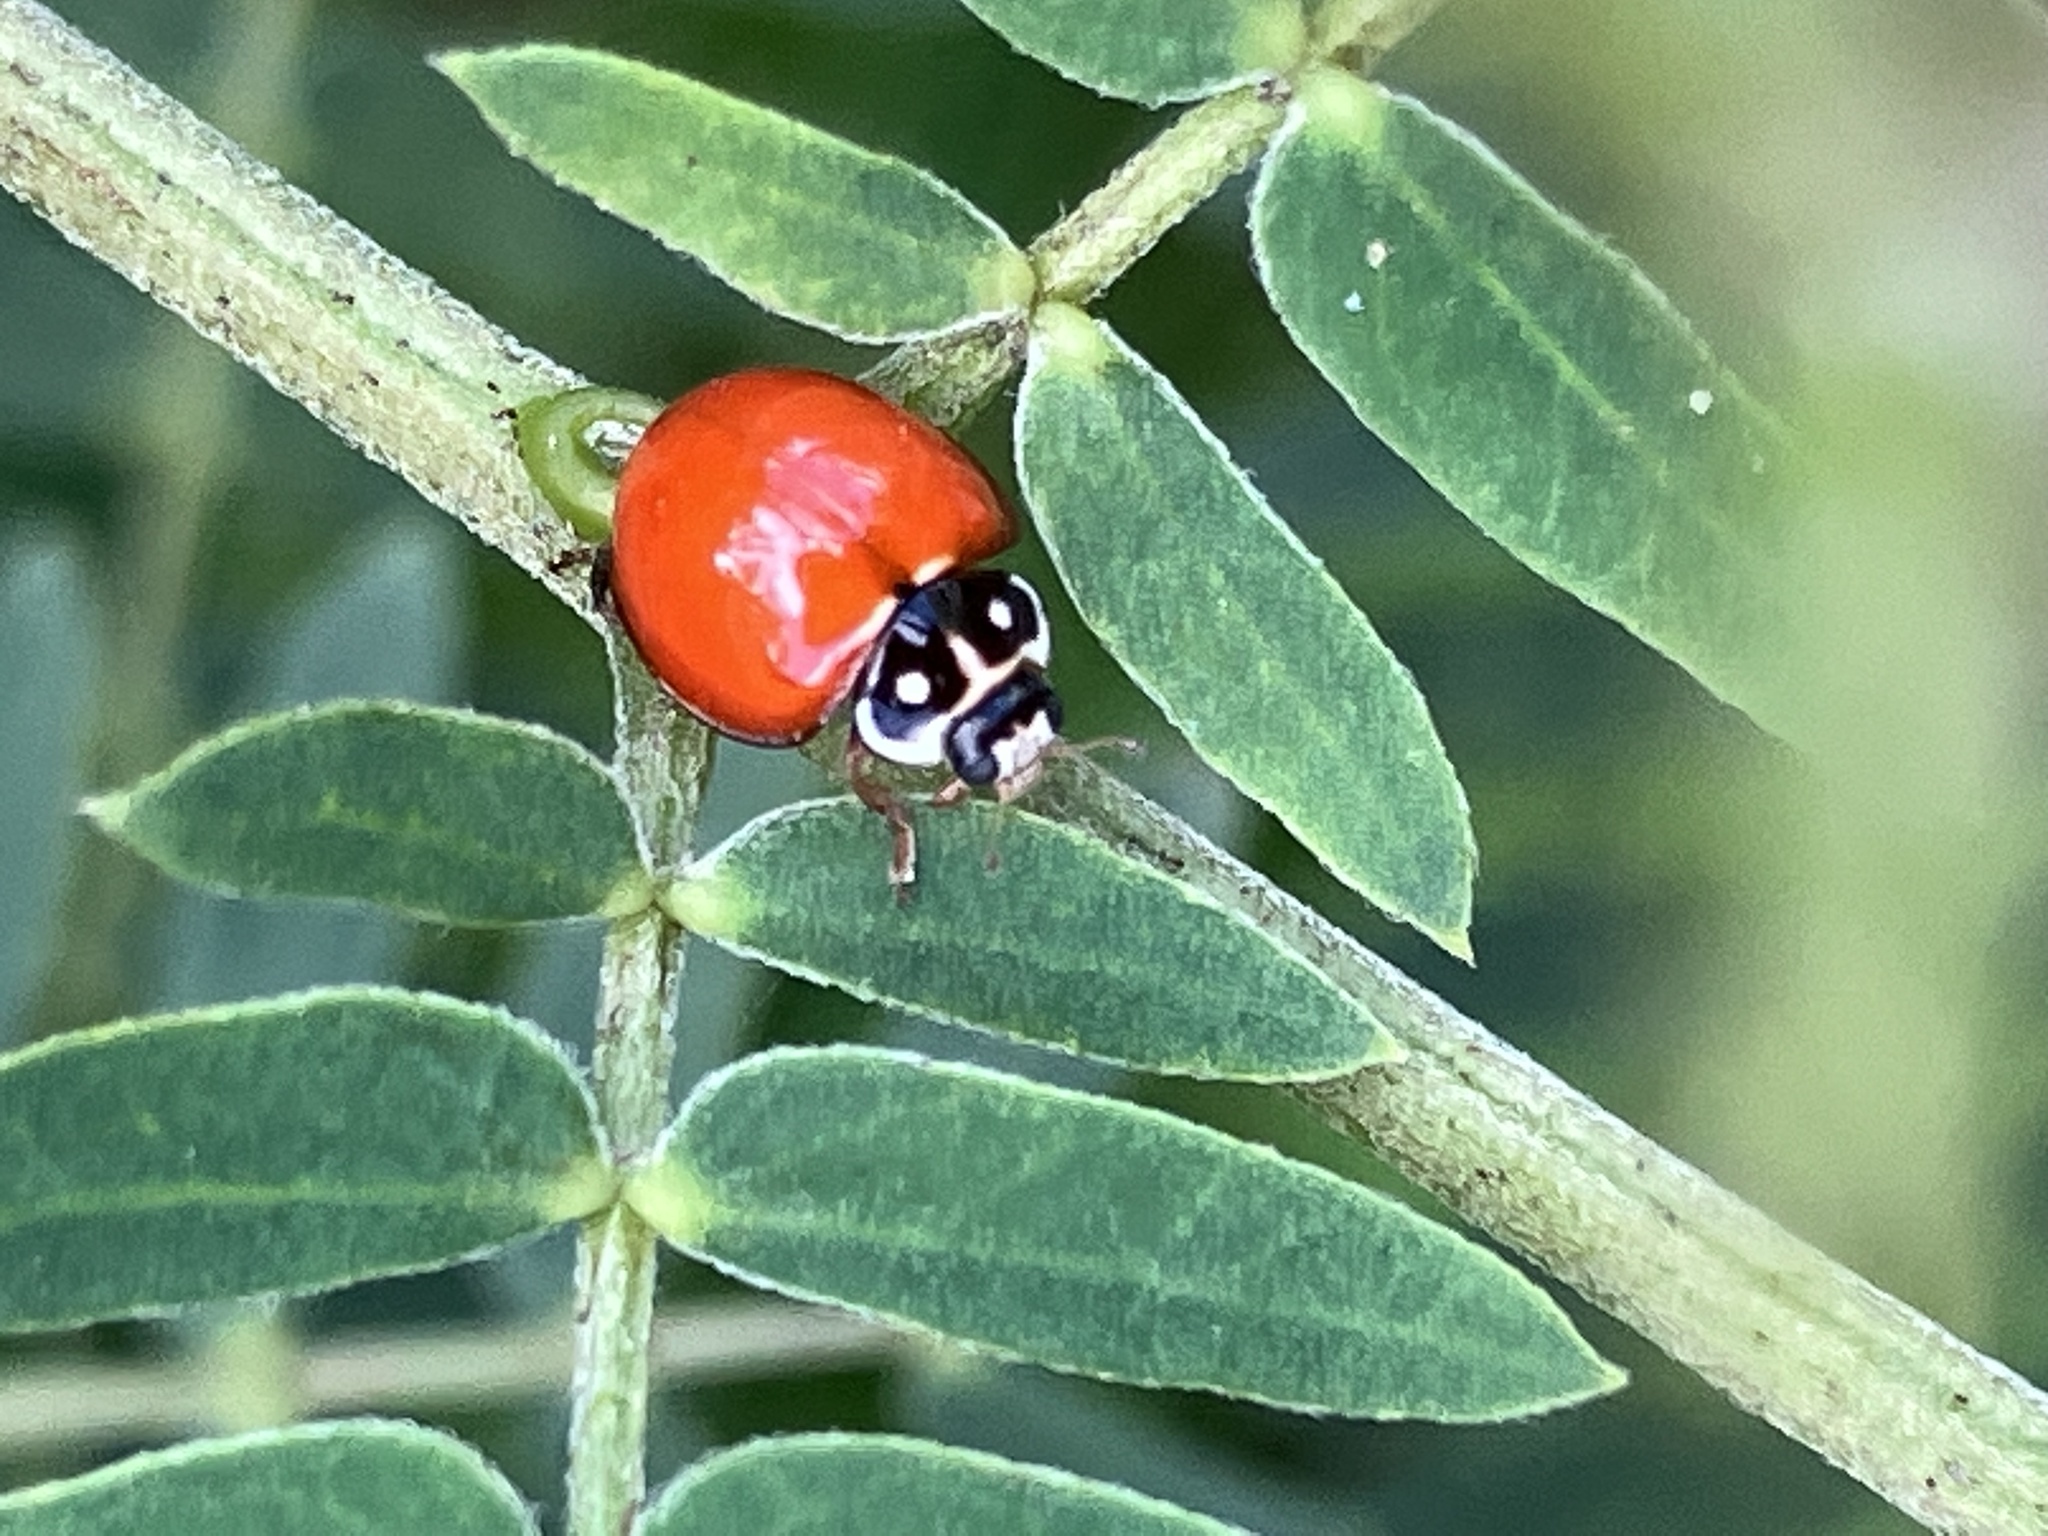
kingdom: Animalia
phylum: Arthropoda
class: Insecta
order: Coleoptera
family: Coccinellidae
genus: Cycloneda
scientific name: Cycloneda sanguinea
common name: Ladybird beetle
